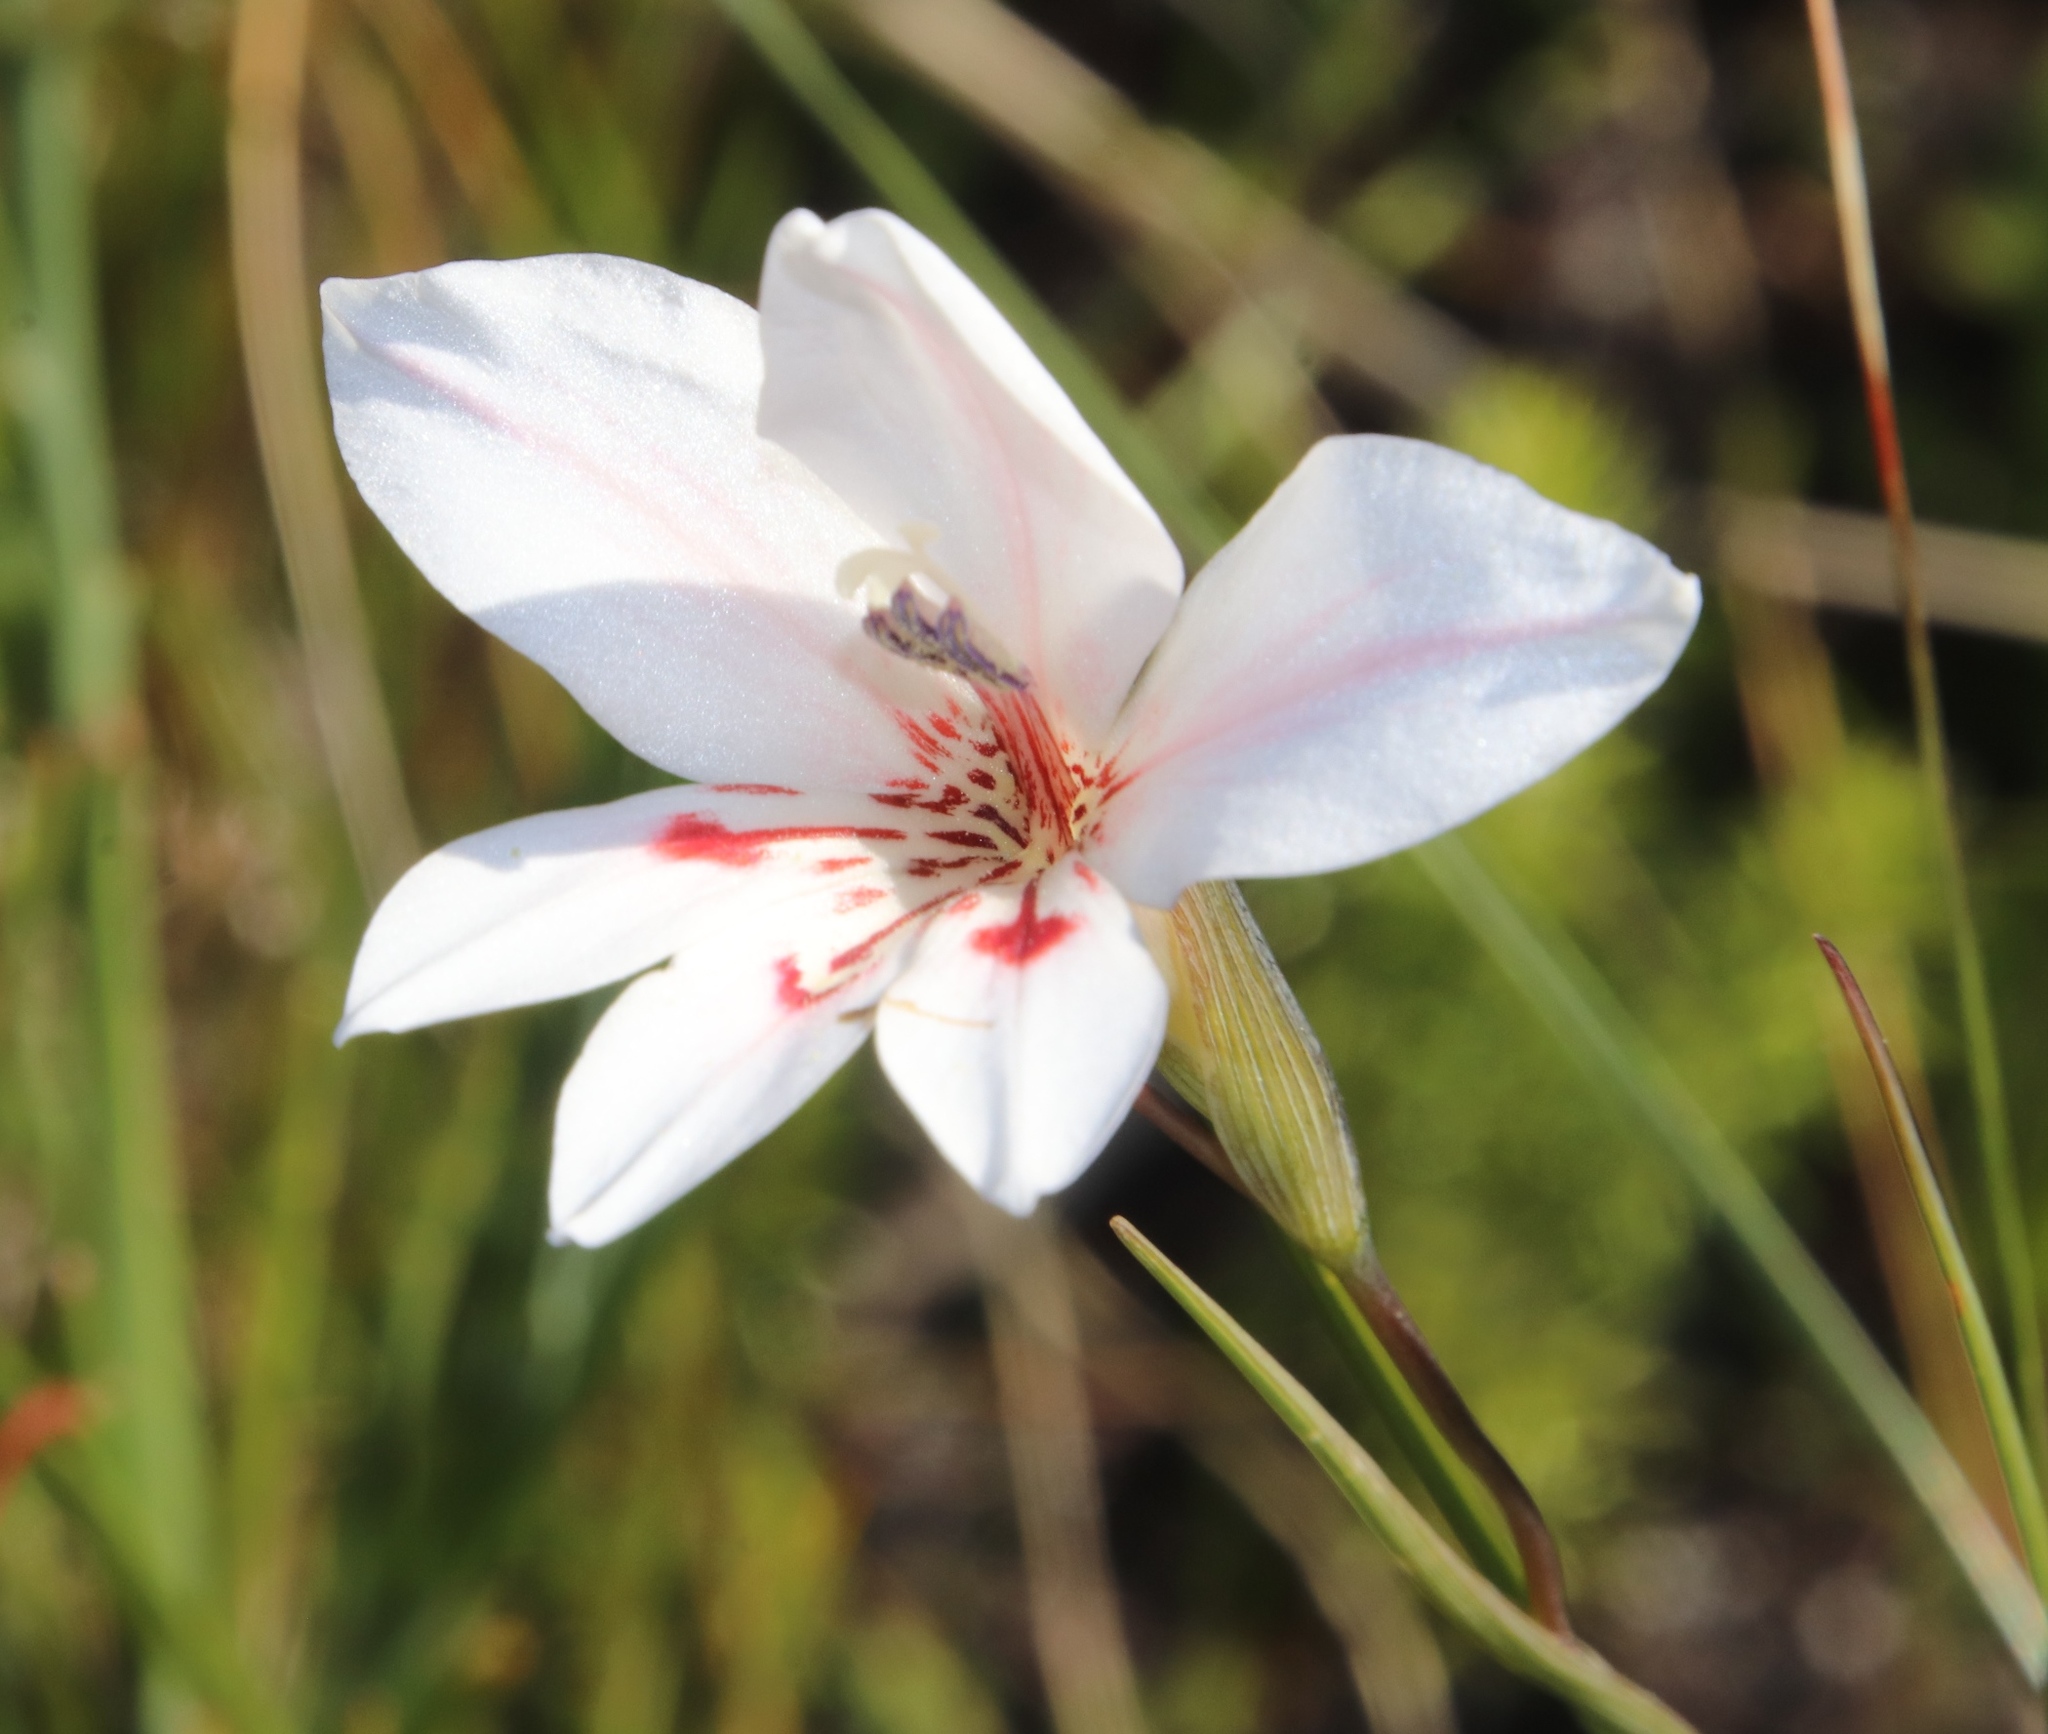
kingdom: Plantae
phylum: Tracheophyta
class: Liliopsida
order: Asparagales
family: Iridaceae
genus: Gladiolus
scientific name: Gladiolus debilis
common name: Painted-lady
